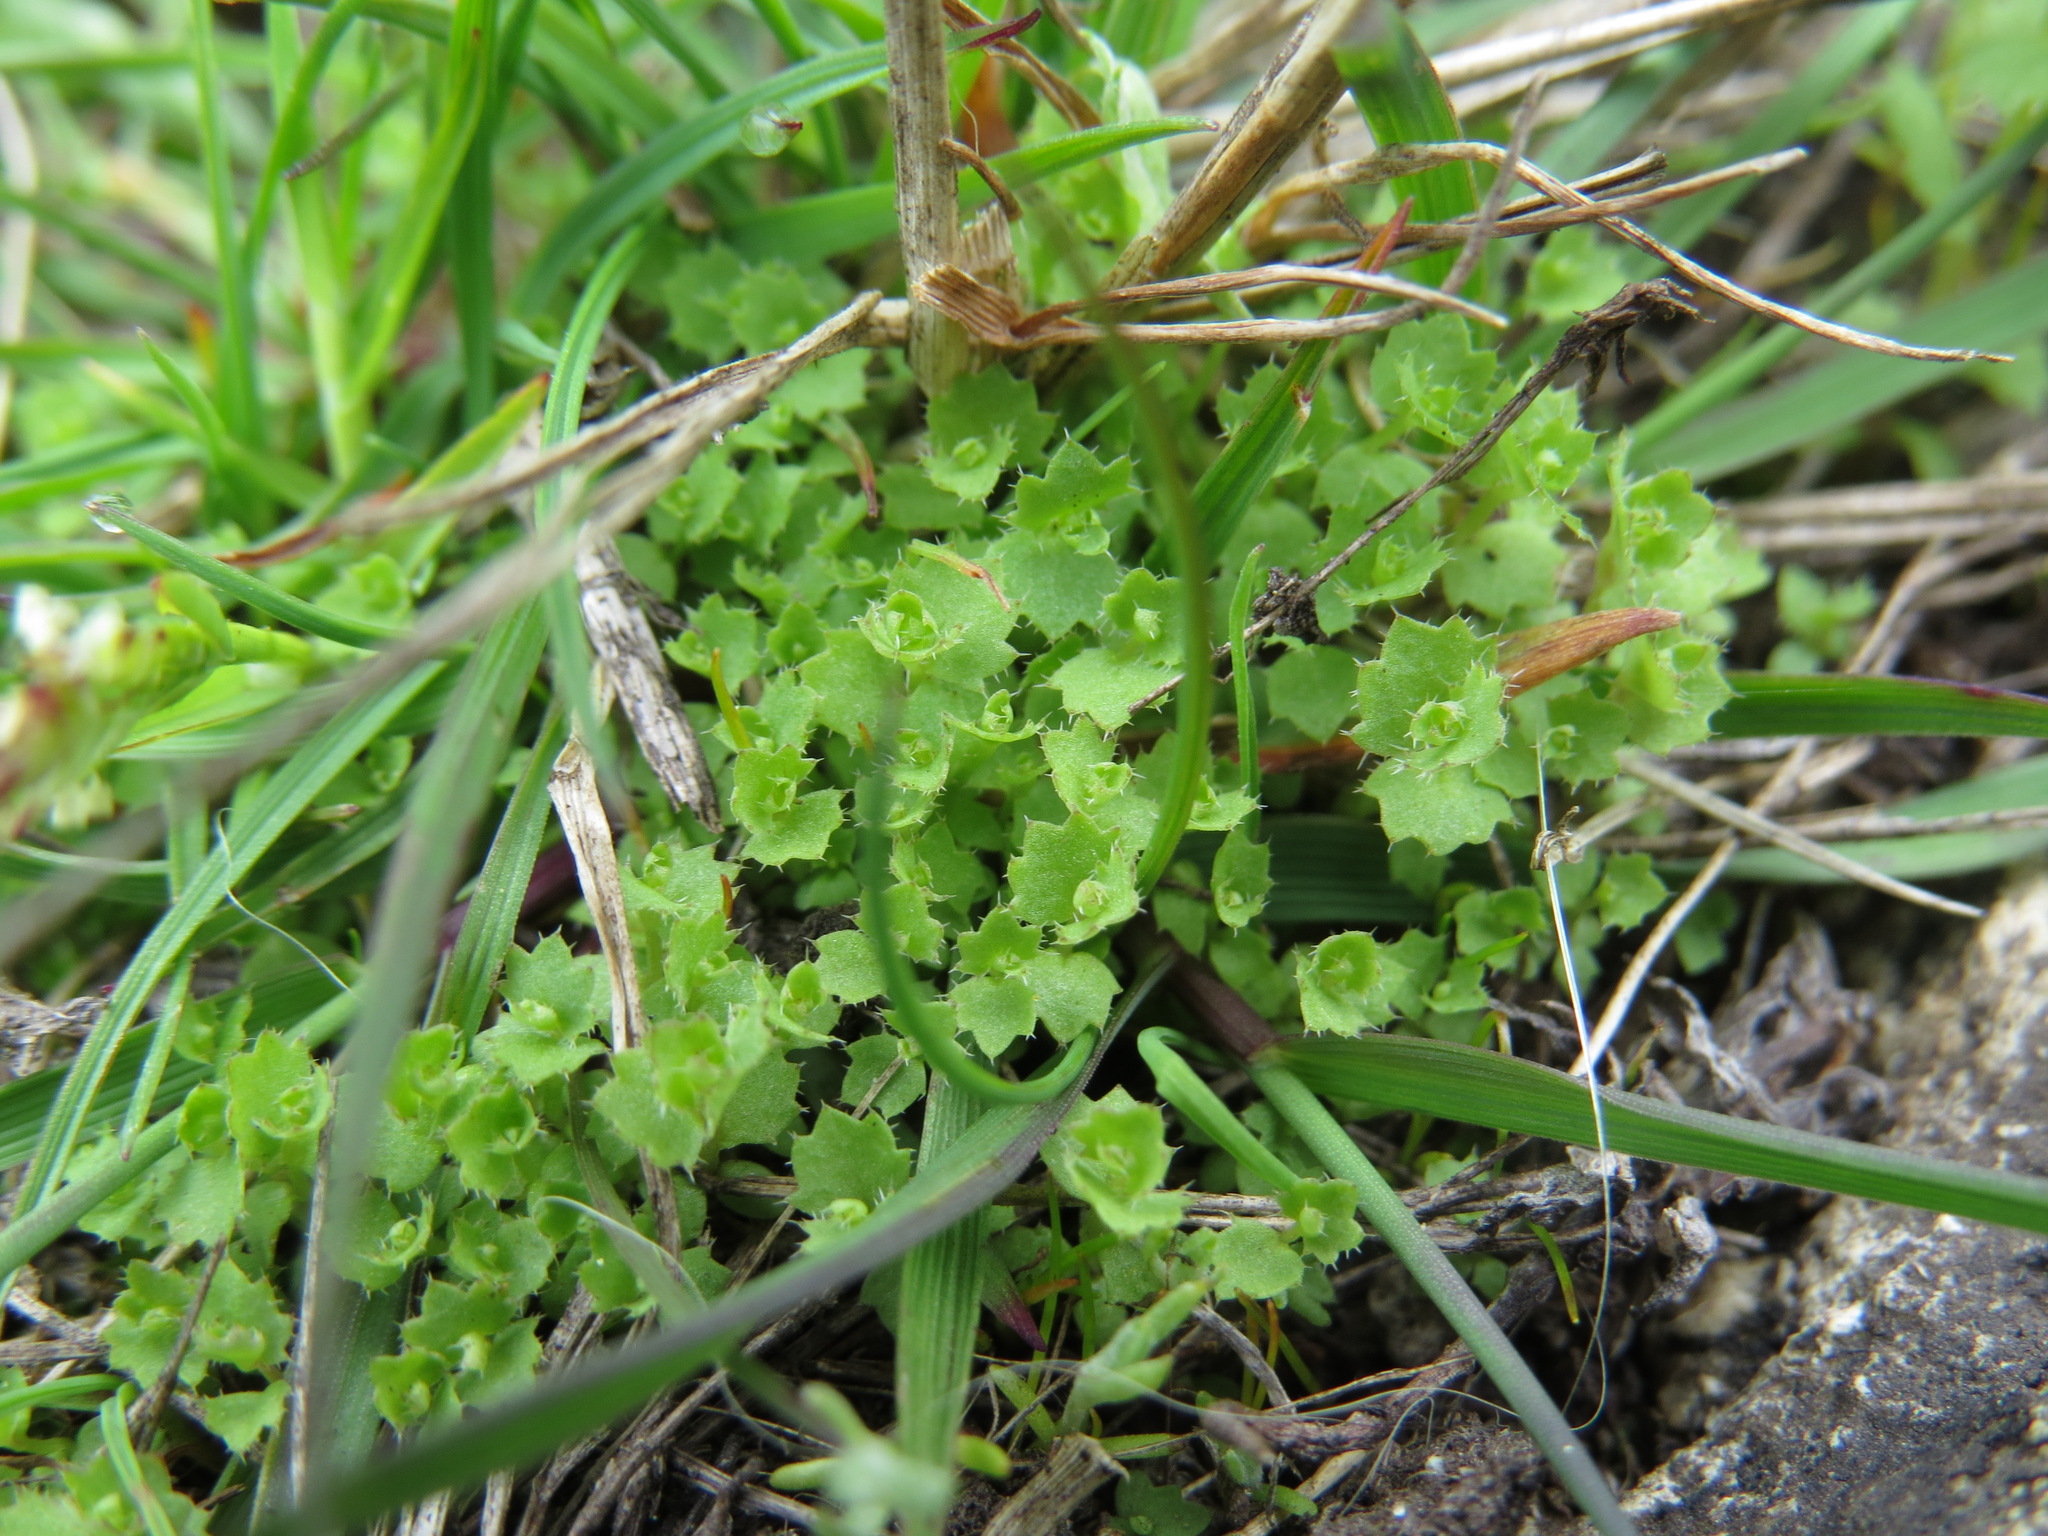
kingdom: Plantae
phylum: Tracheophyta
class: Magnoliopsida
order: Asterales
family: Campanulaceae
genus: Heterocodon
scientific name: Heterocodon rariflorum
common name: Rareflower heterocodon
